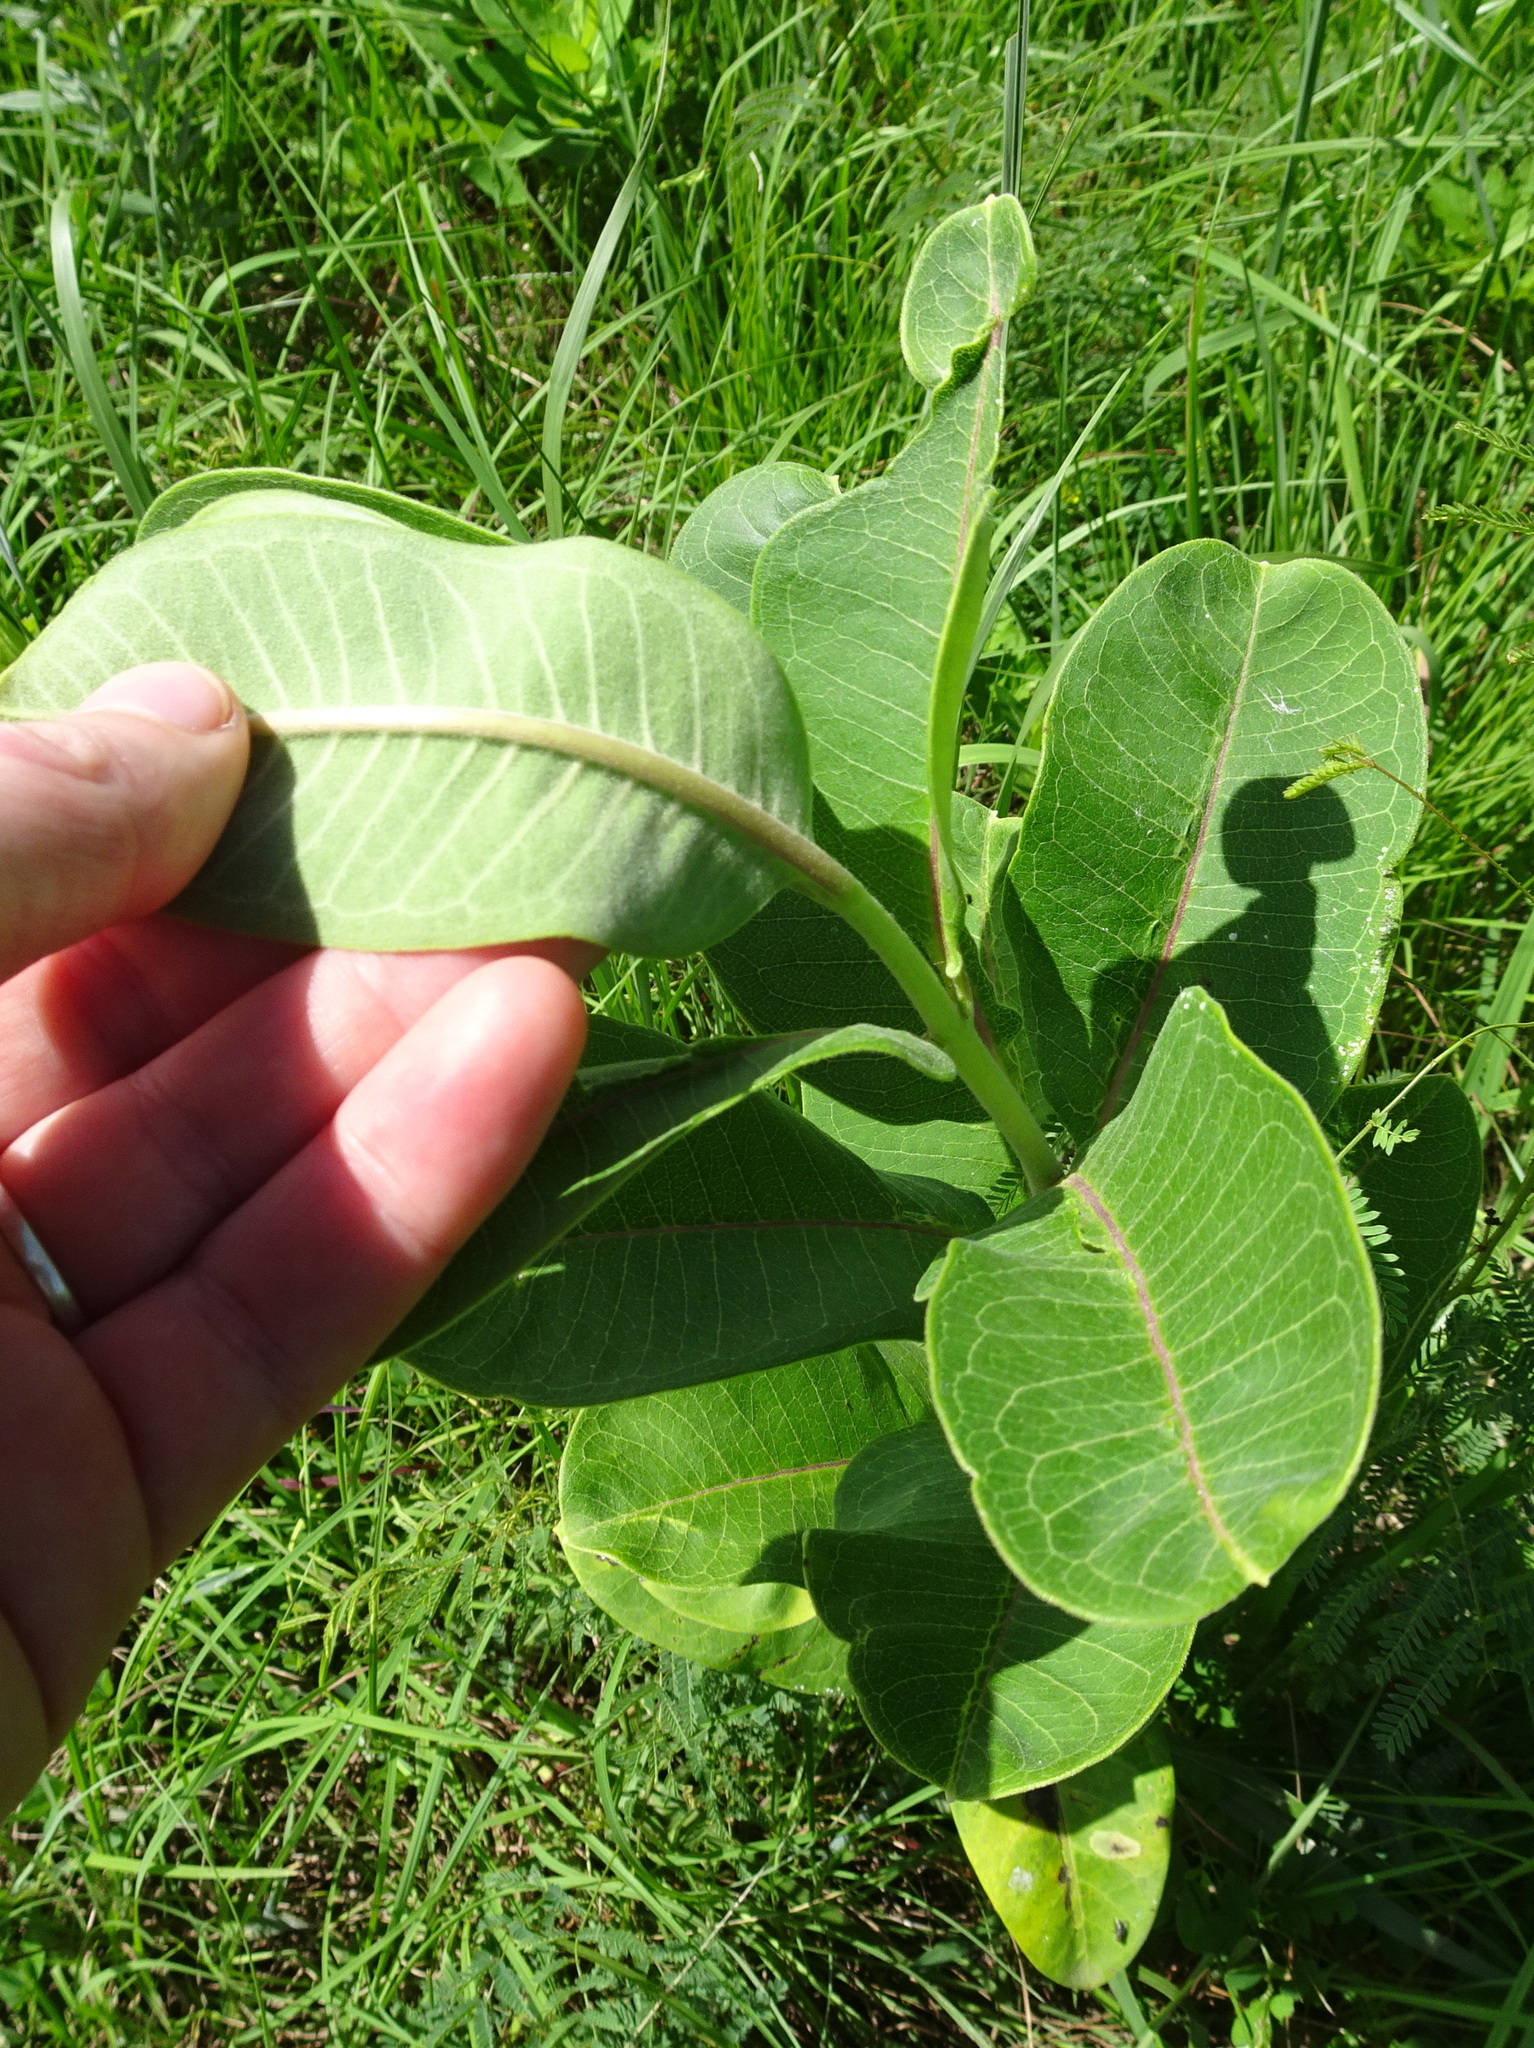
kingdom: Plantae
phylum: Tracheophyta
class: Magnoliopsida
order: Gentianales
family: Apocynaceae
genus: Asclepias
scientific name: Asclepias syriaca
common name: Common milkweed
